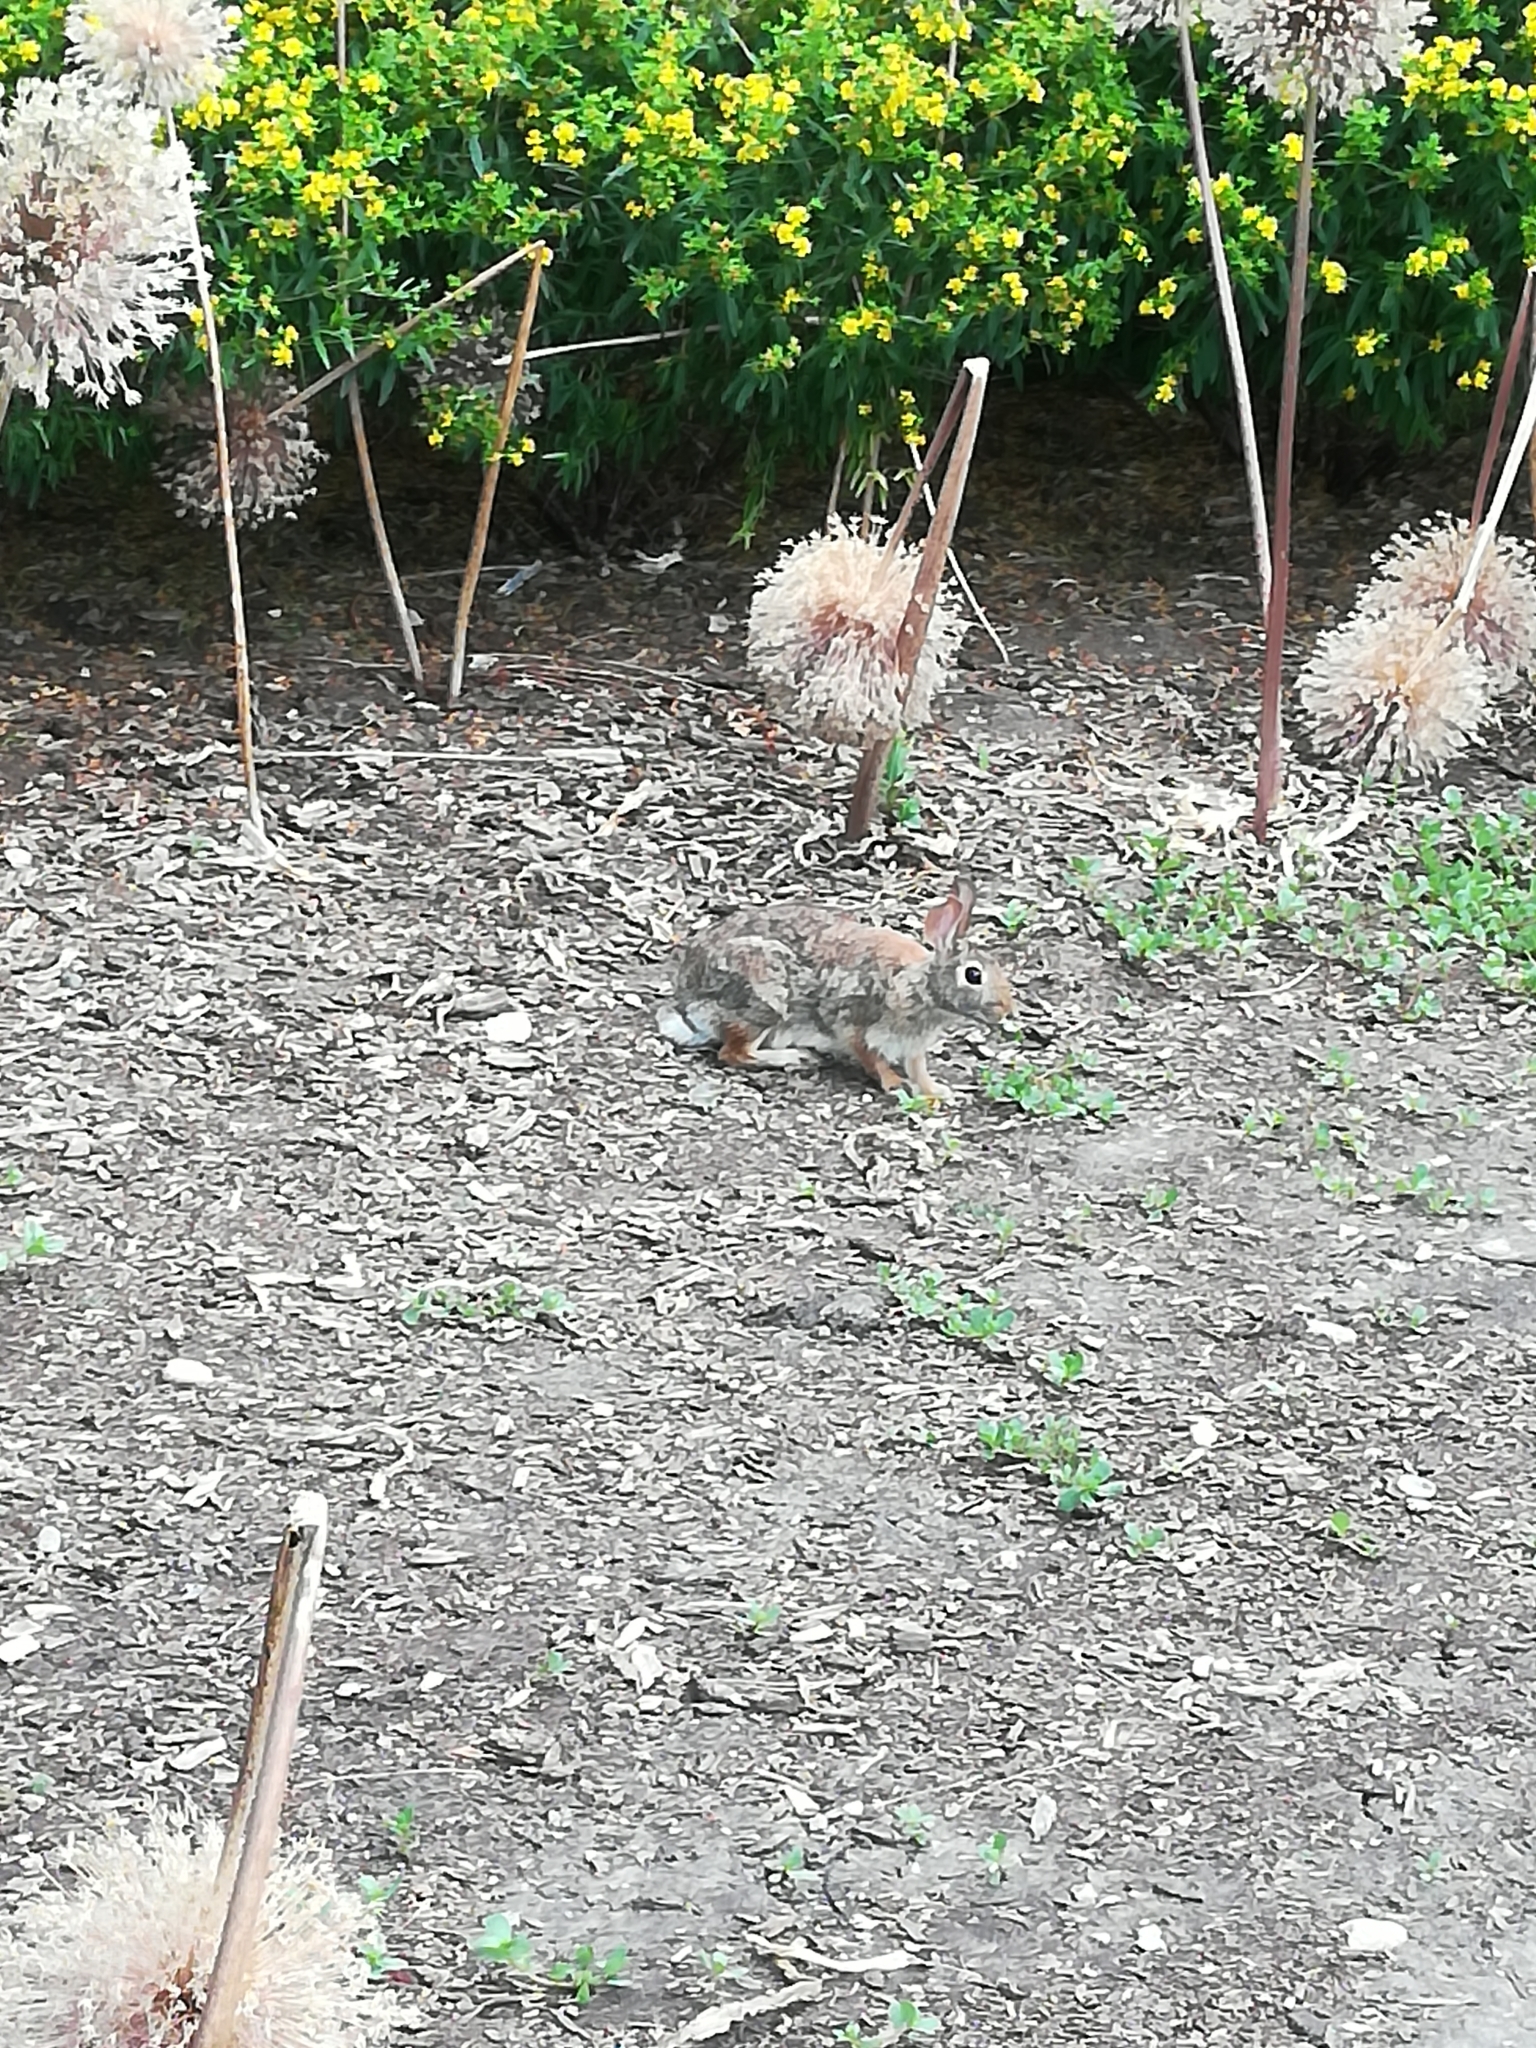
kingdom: Animalia
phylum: Chordata
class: Mammalia
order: Lagomorpha
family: Leporidae
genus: Sylvilagus
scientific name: Sylvilagus floridanus
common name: Eastern cottontail
